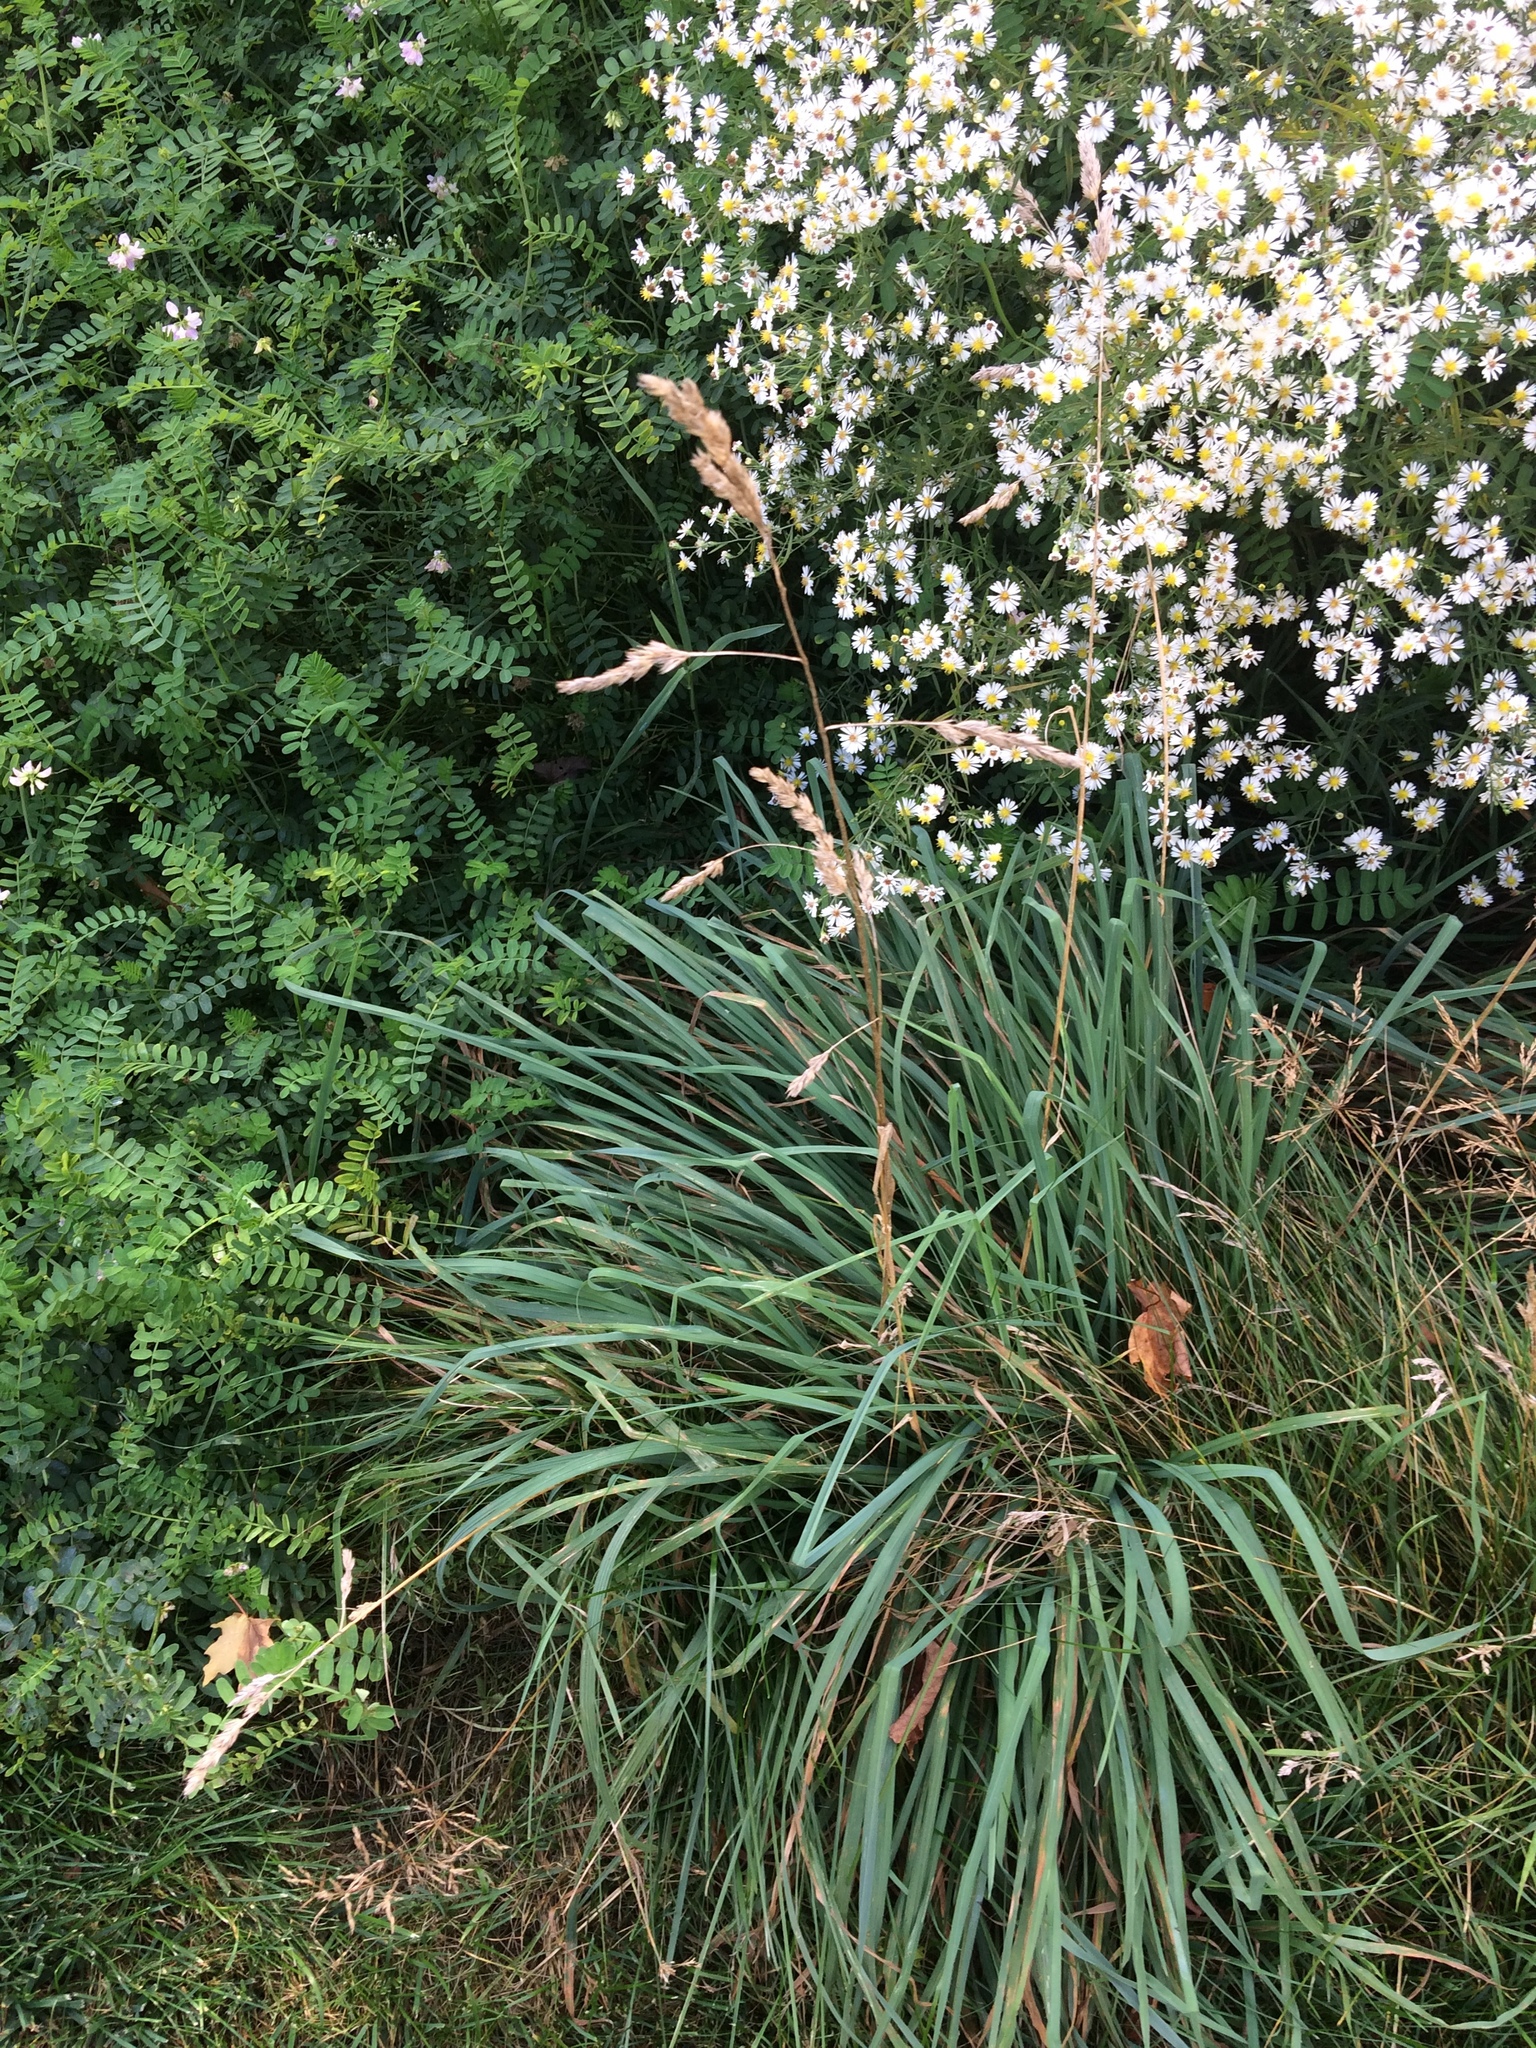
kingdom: Plantae
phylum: Tracheophyta
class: Liliopsida
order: Poales
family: Poaceae
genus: Dactylis
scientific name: Dactylis glomerata
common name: Orchardgrass
